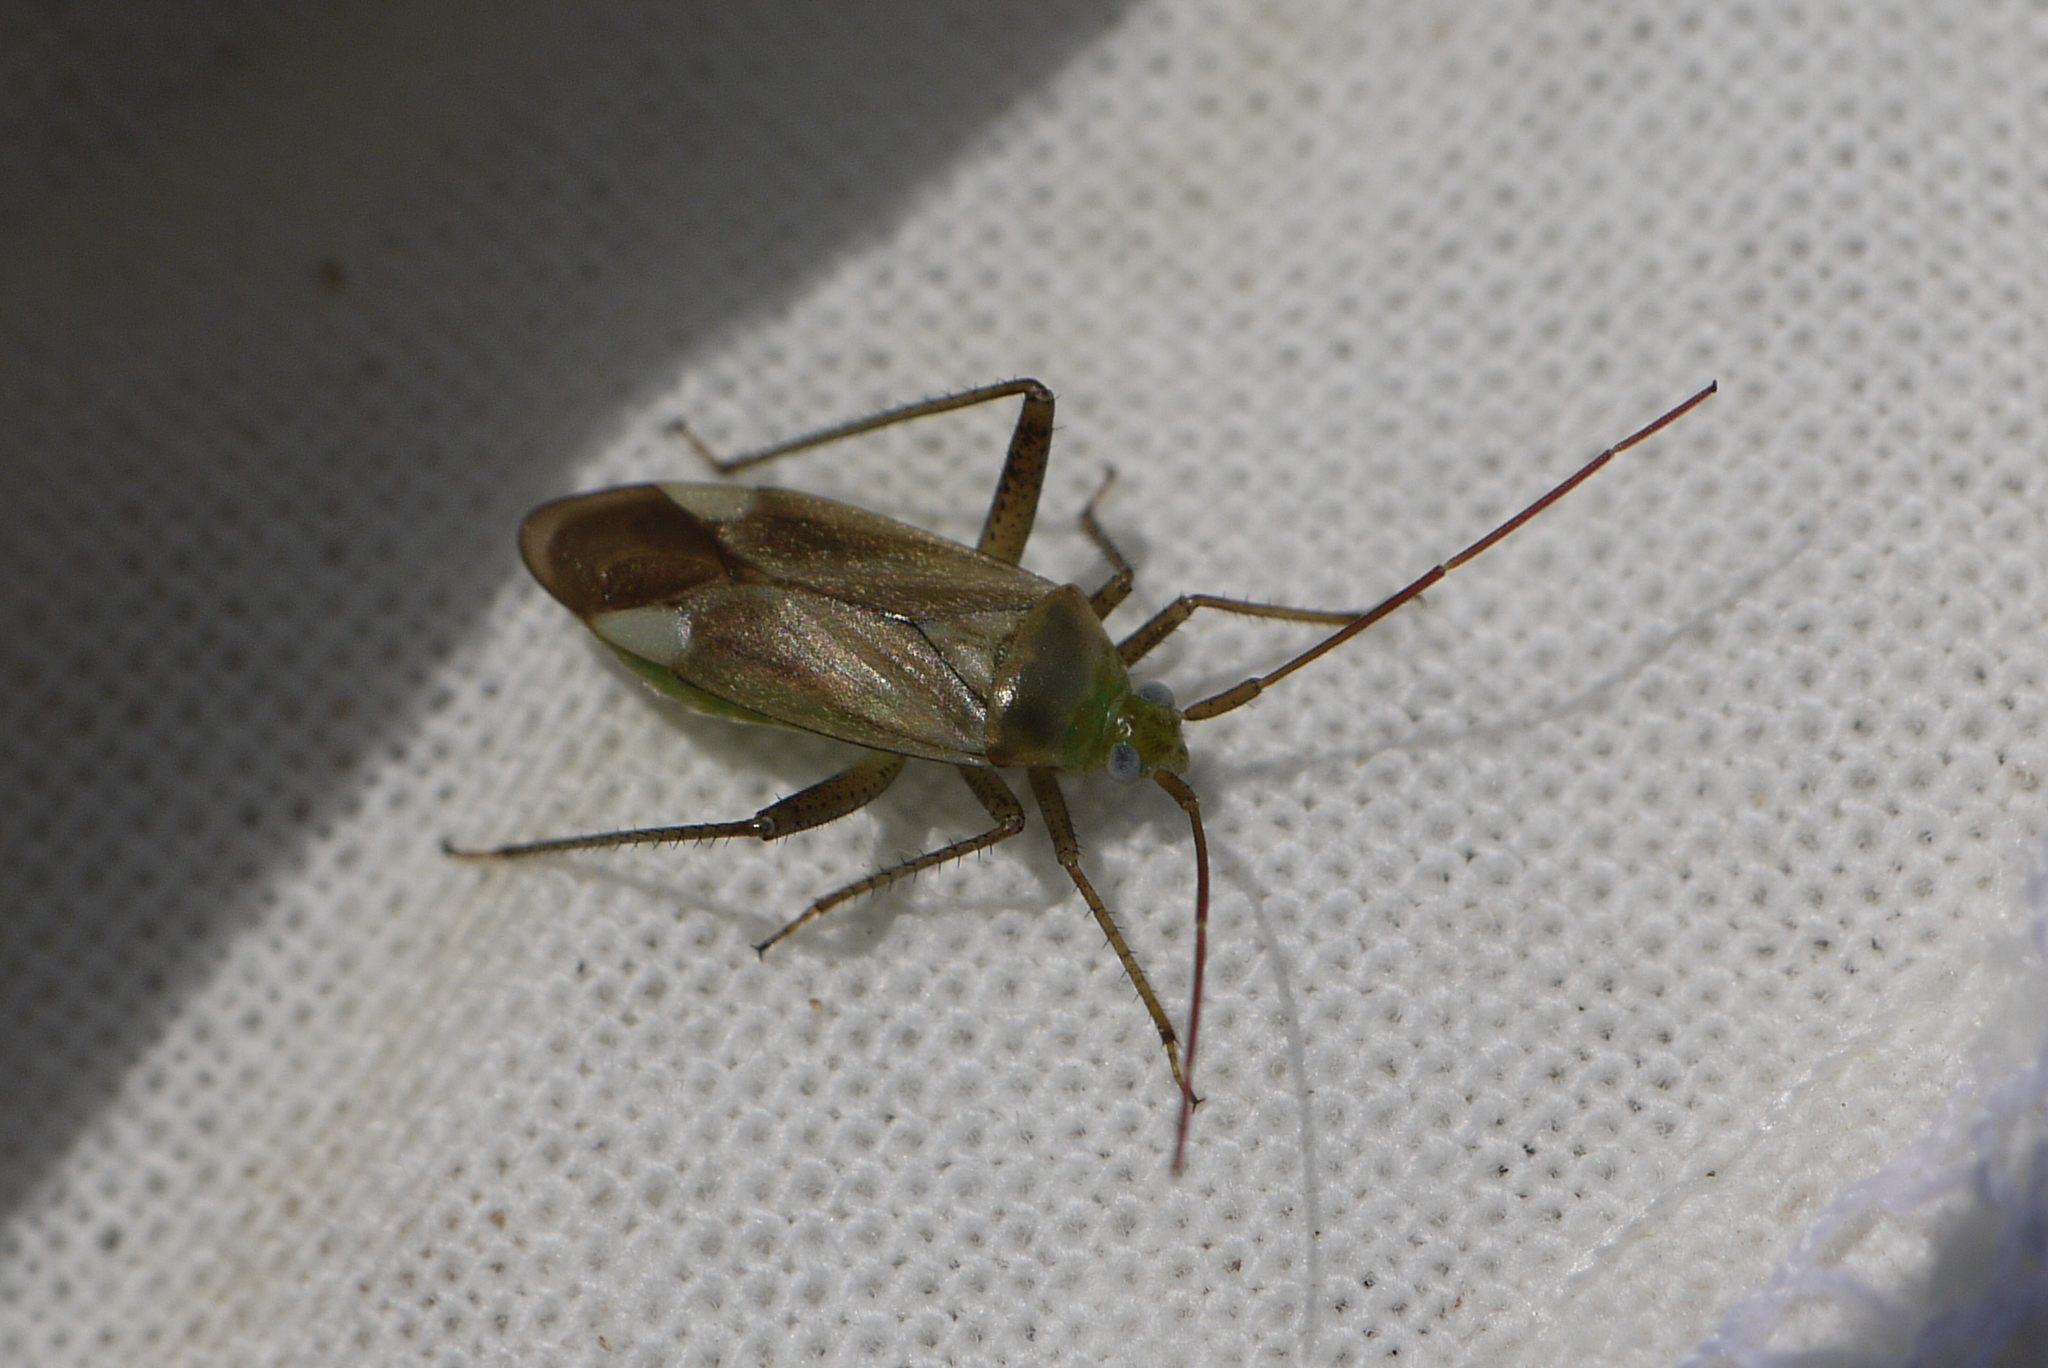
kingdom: Animalia
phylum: Arthropoda
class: Insecta
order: Hemiptera
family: Miridae
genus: Adelphocoris
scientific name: Adelphocoris lineolatus
